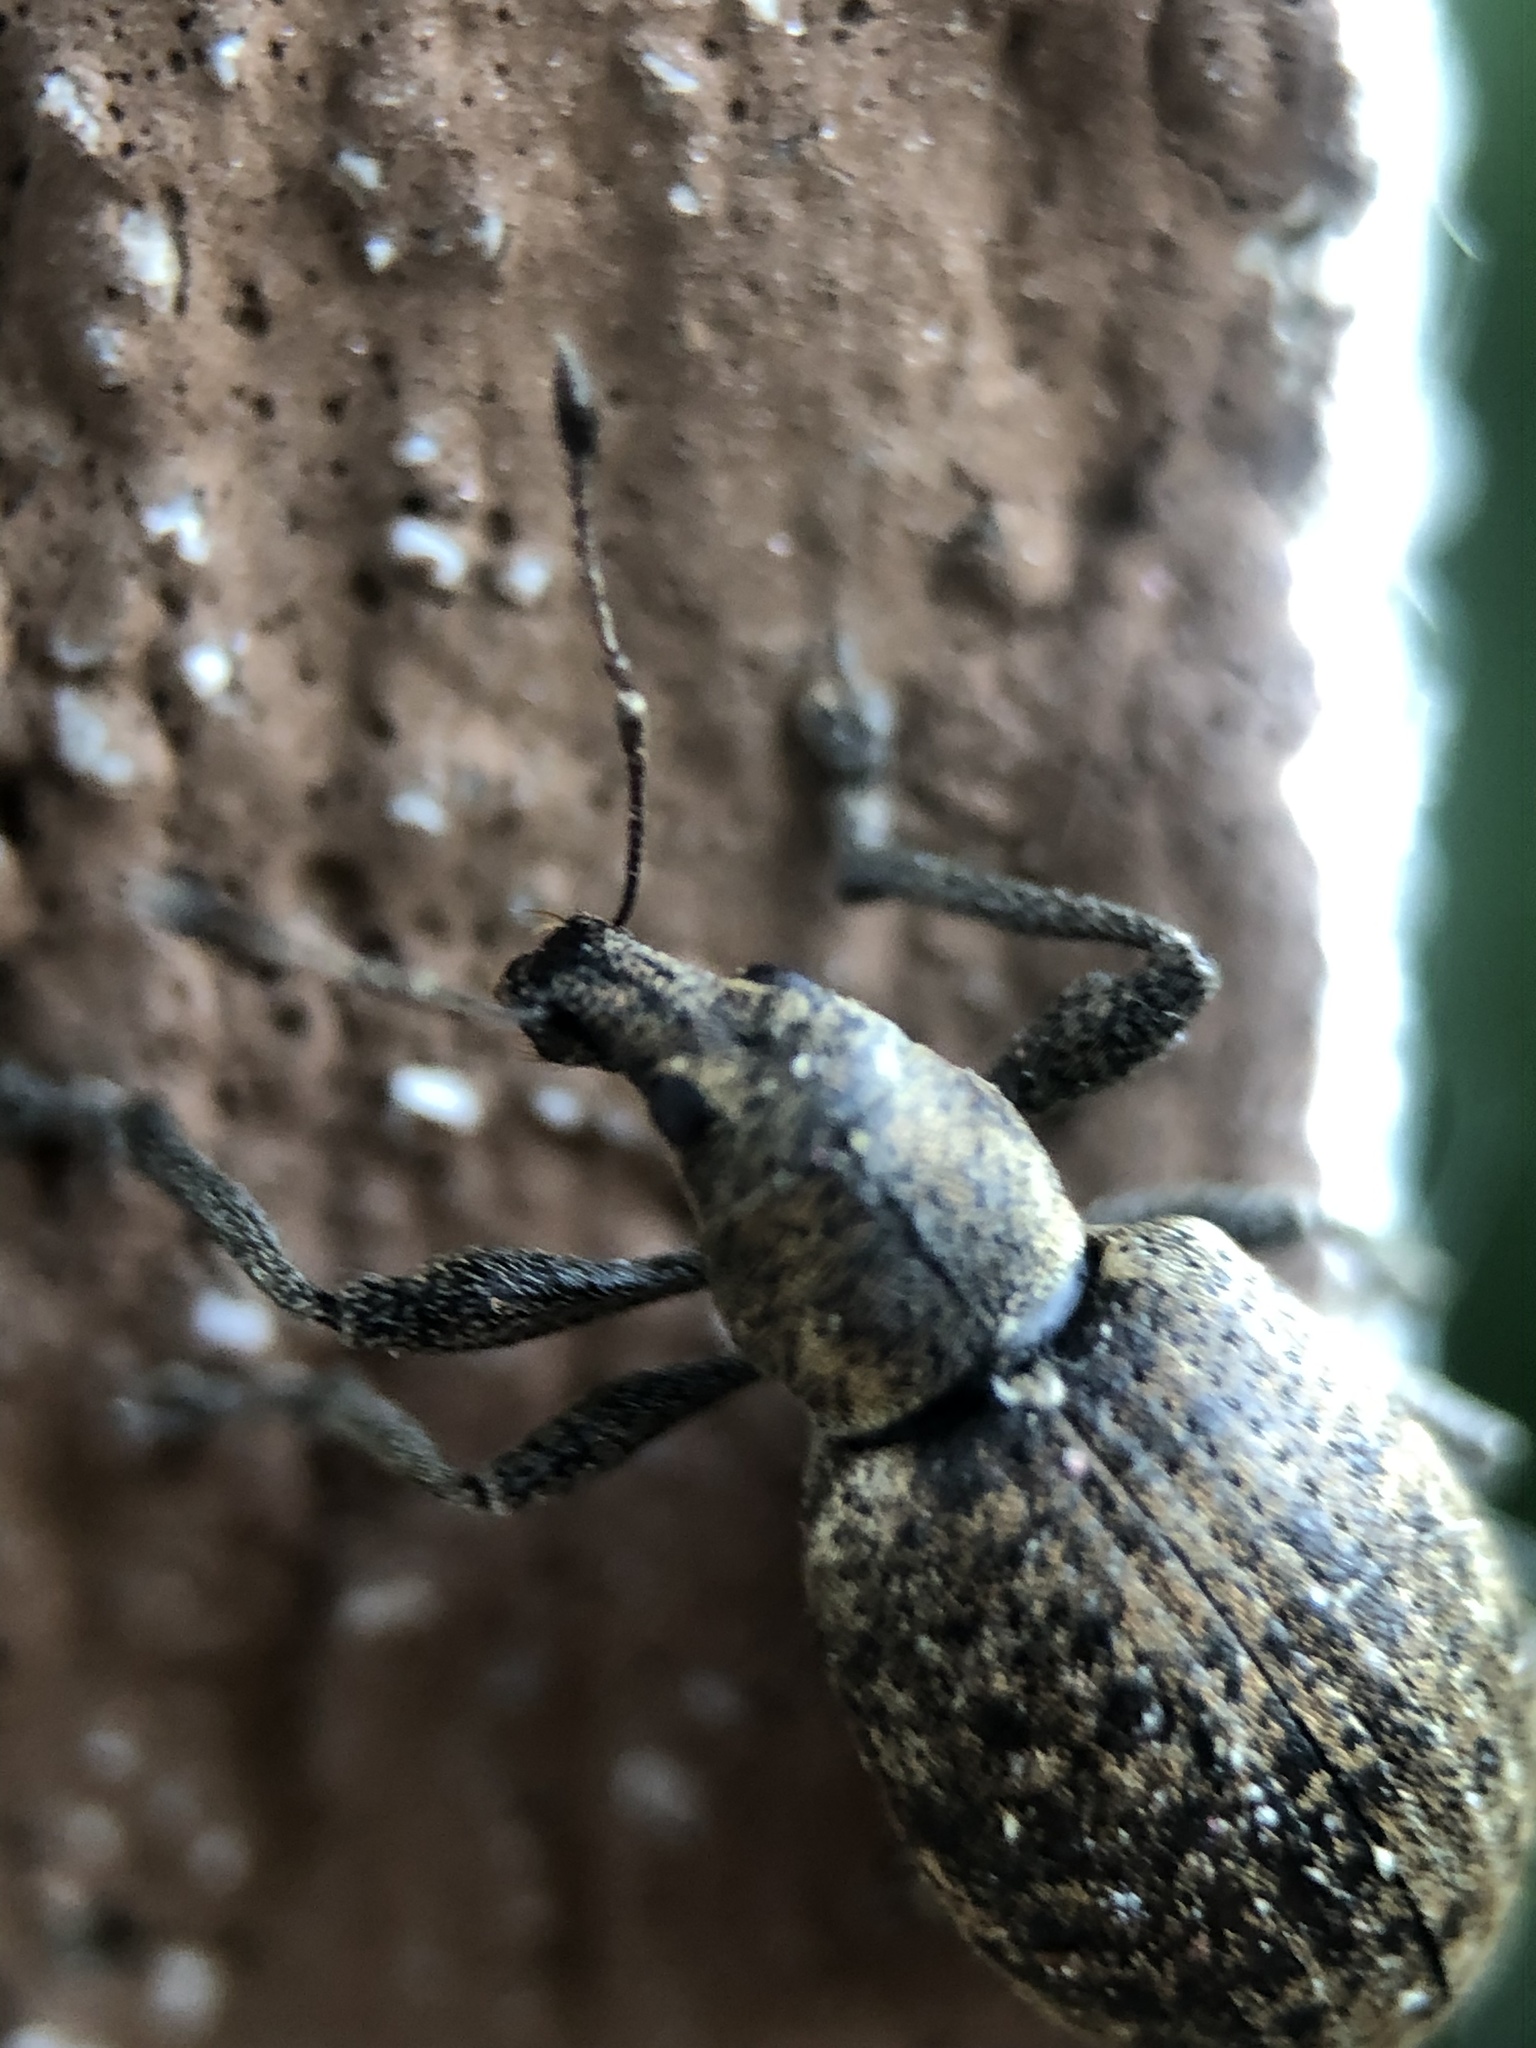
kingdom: Animalia
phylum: Arthropoda
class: Insecta
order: Coleoptera
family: Curculionidae
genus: Liophloeus
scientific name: Liophloeus tessulatus
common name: Weevil
